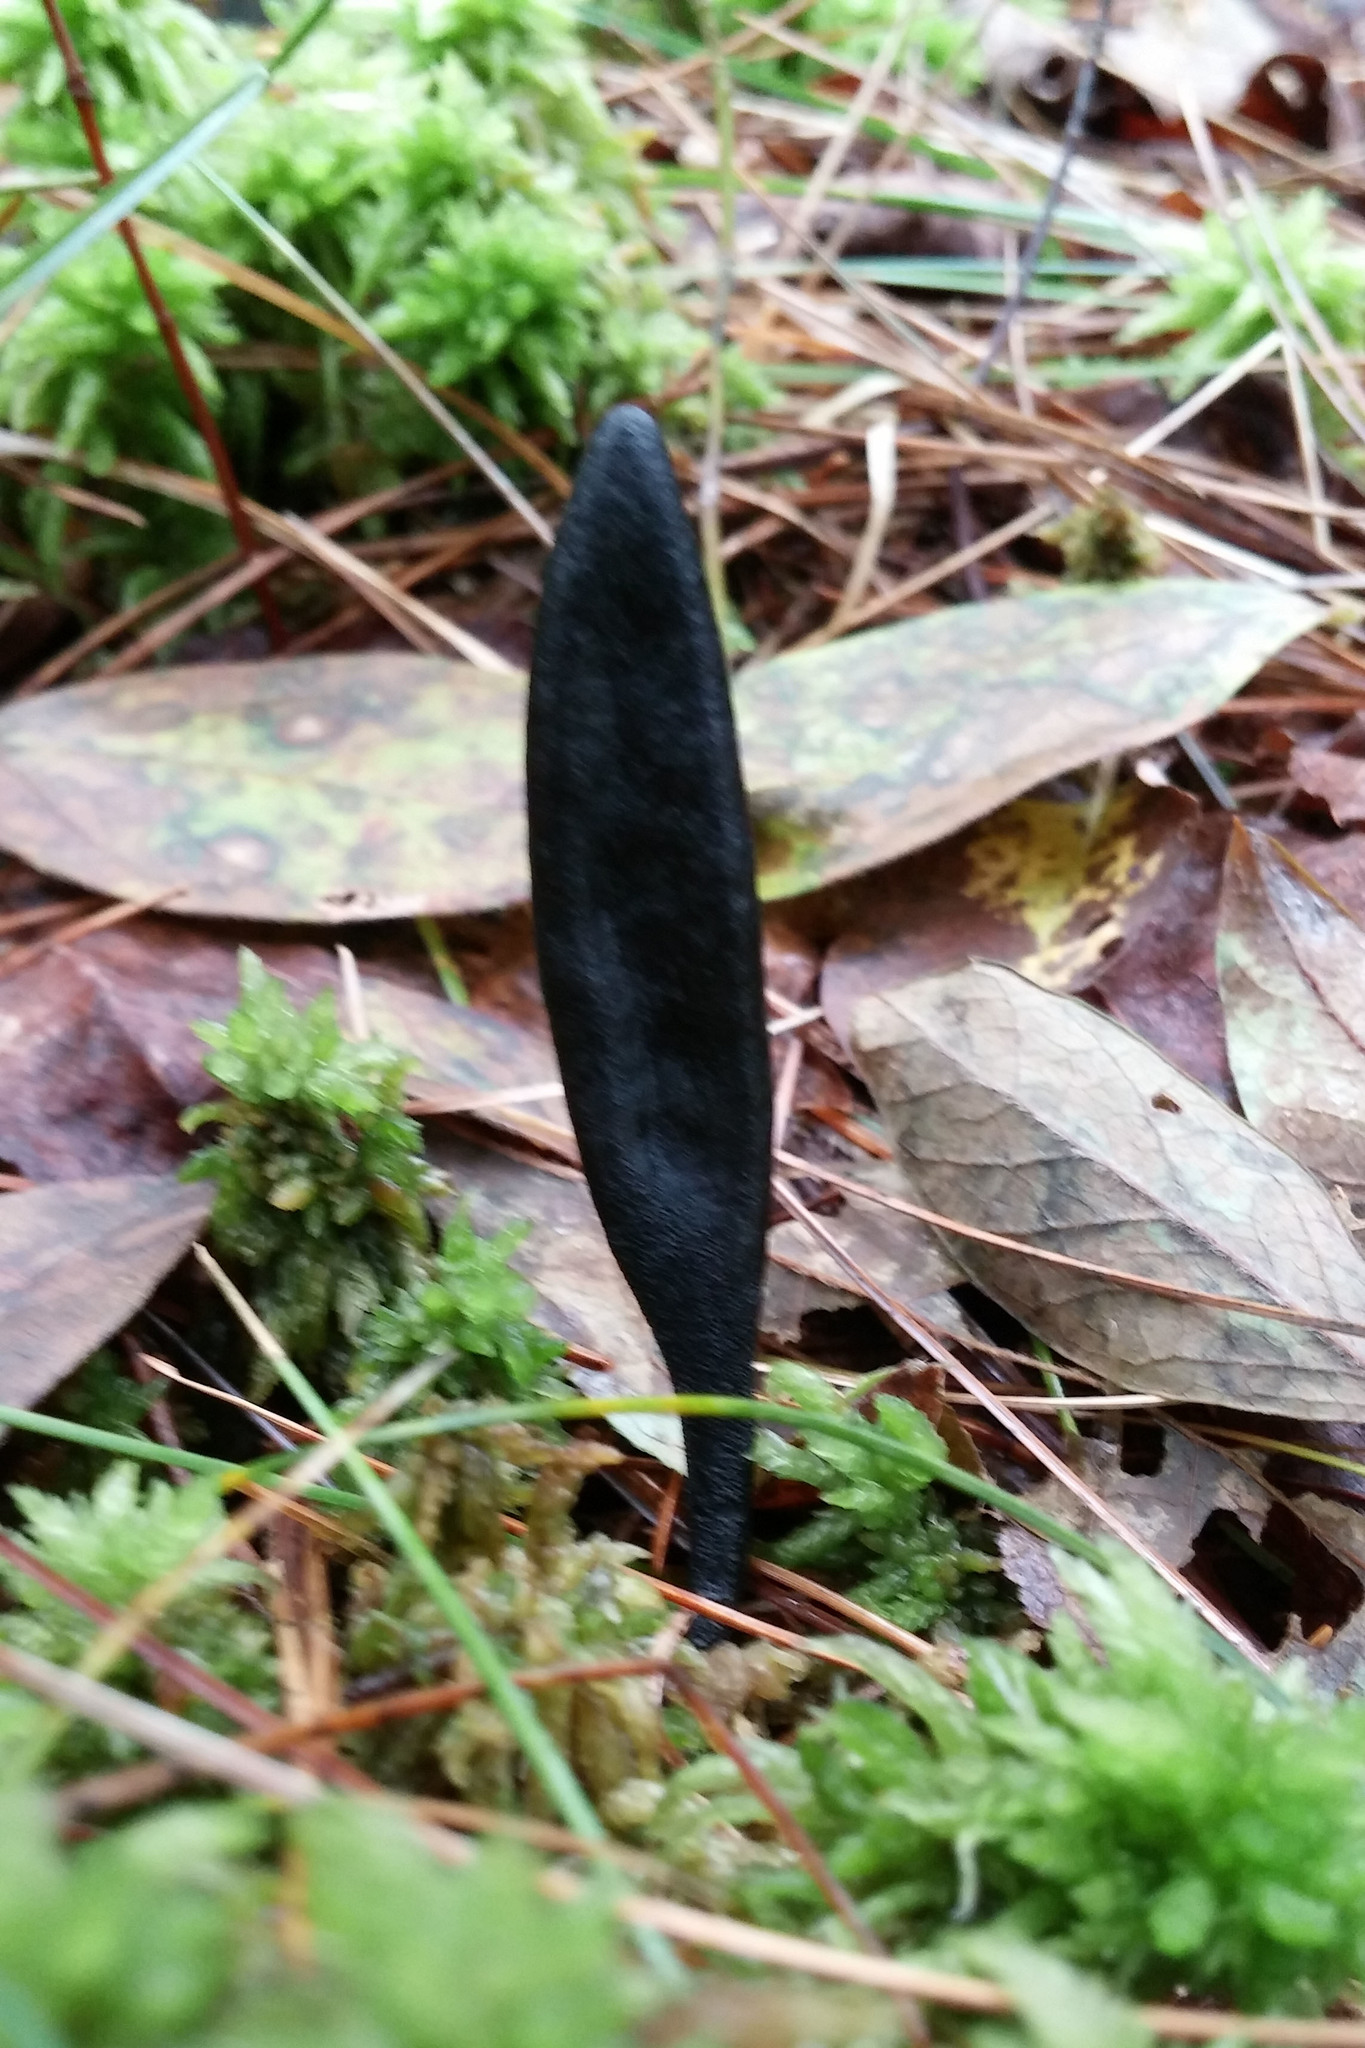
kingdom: Fungi
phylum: Ascomycota
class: Geoglossomycetes
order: Geoglossales
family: Geoglossaceae
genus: Trichoglossum
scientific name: Trichoglossum hirsutum
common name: Hairy earthtongue
